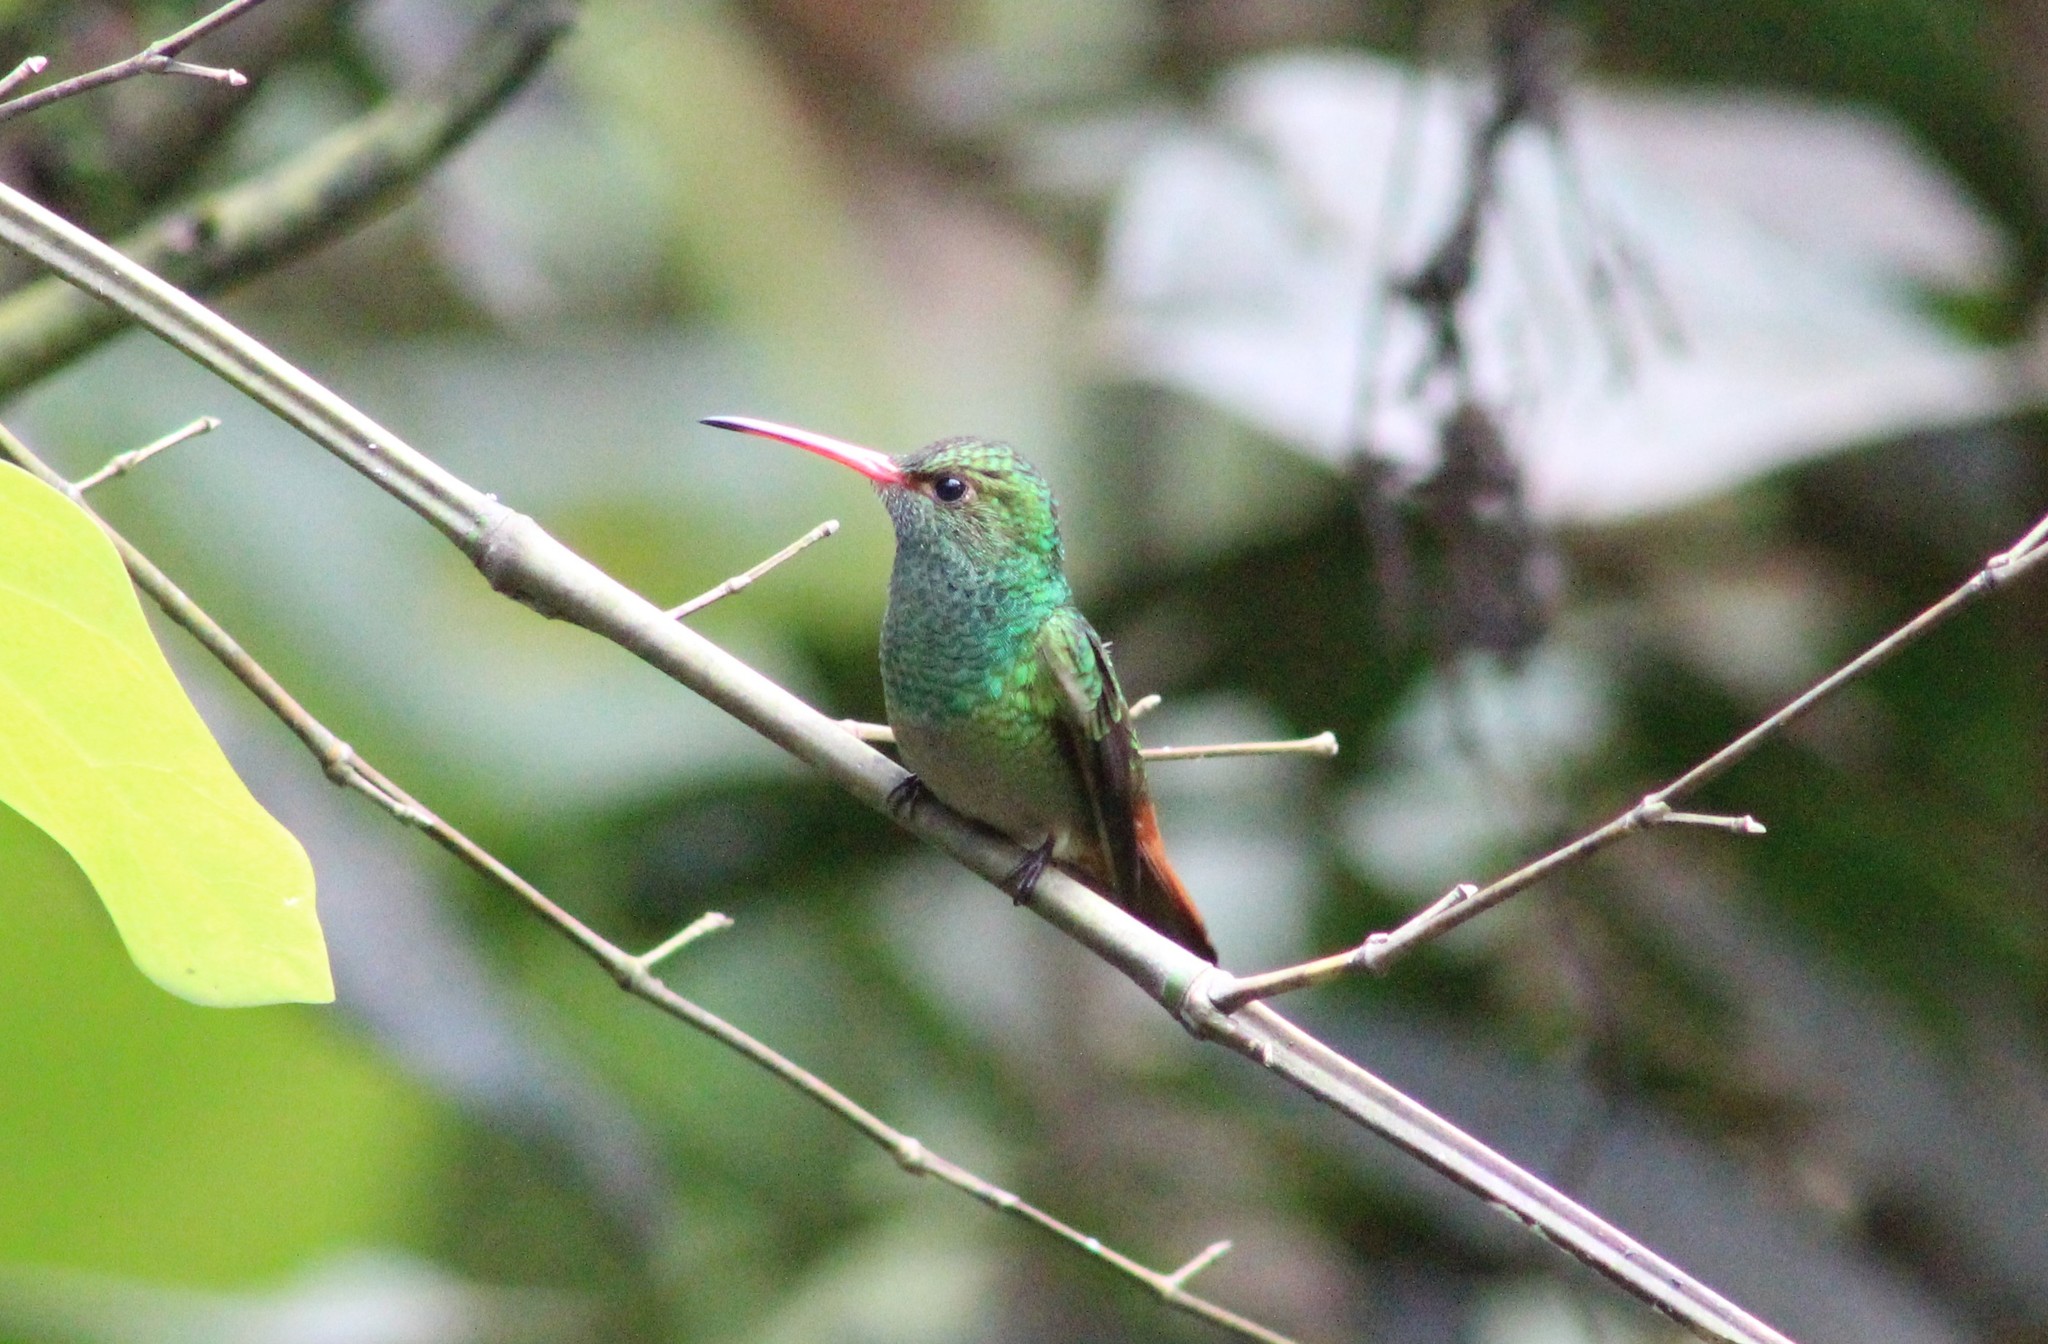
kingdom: Animalia
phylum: Chordata
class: Aves
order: Apodiformes
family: Trochilidae
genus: Amazilia
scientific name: Amazilia tzacatl
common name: Rufous-tailed hummingbird
